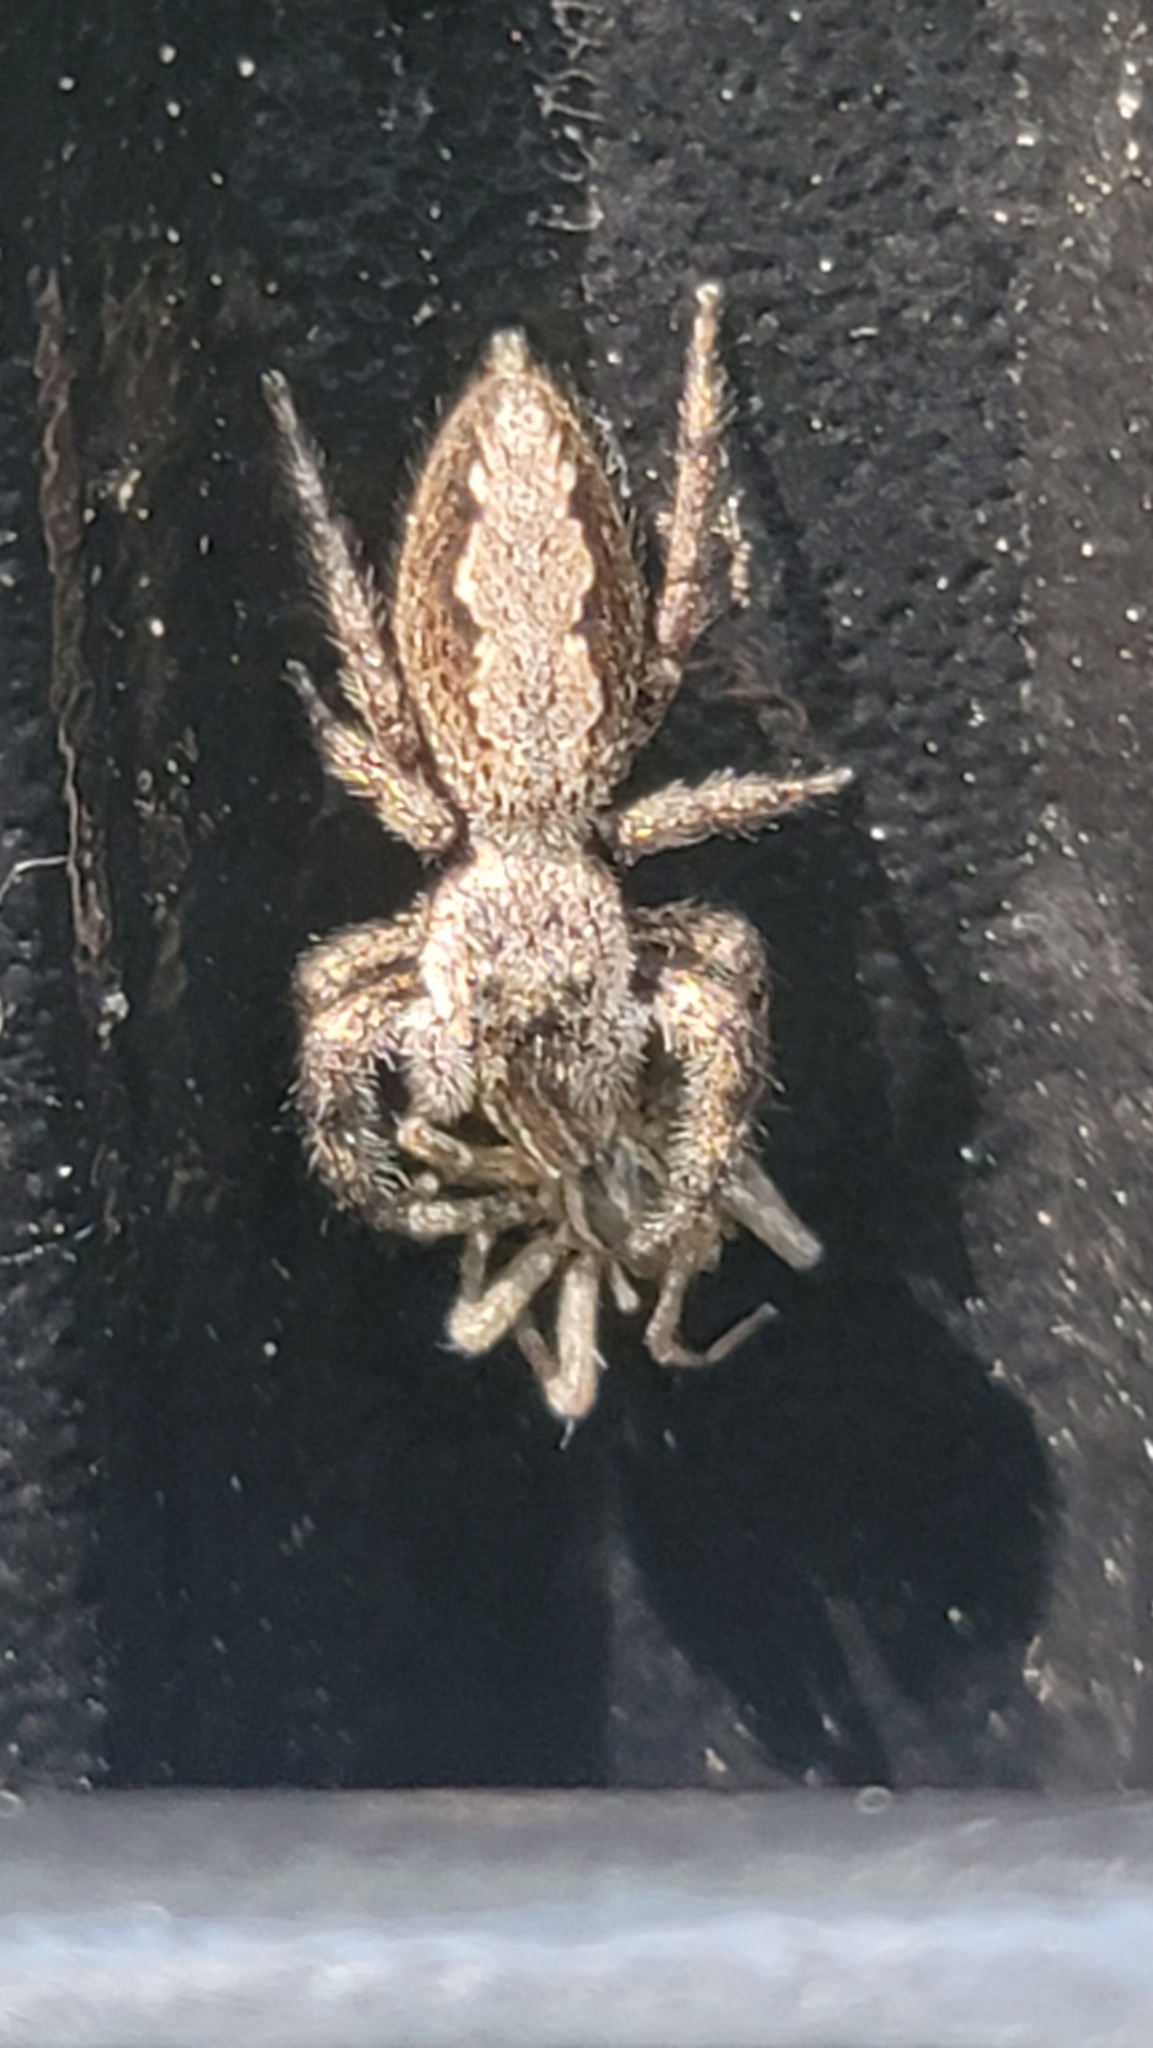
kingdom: Animalia
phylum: Arthropoda
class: Arachnida
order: Araneae
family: Salticidae
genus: Platycryptus
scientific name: Platycryptus undatus
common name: Tan jumping spider
